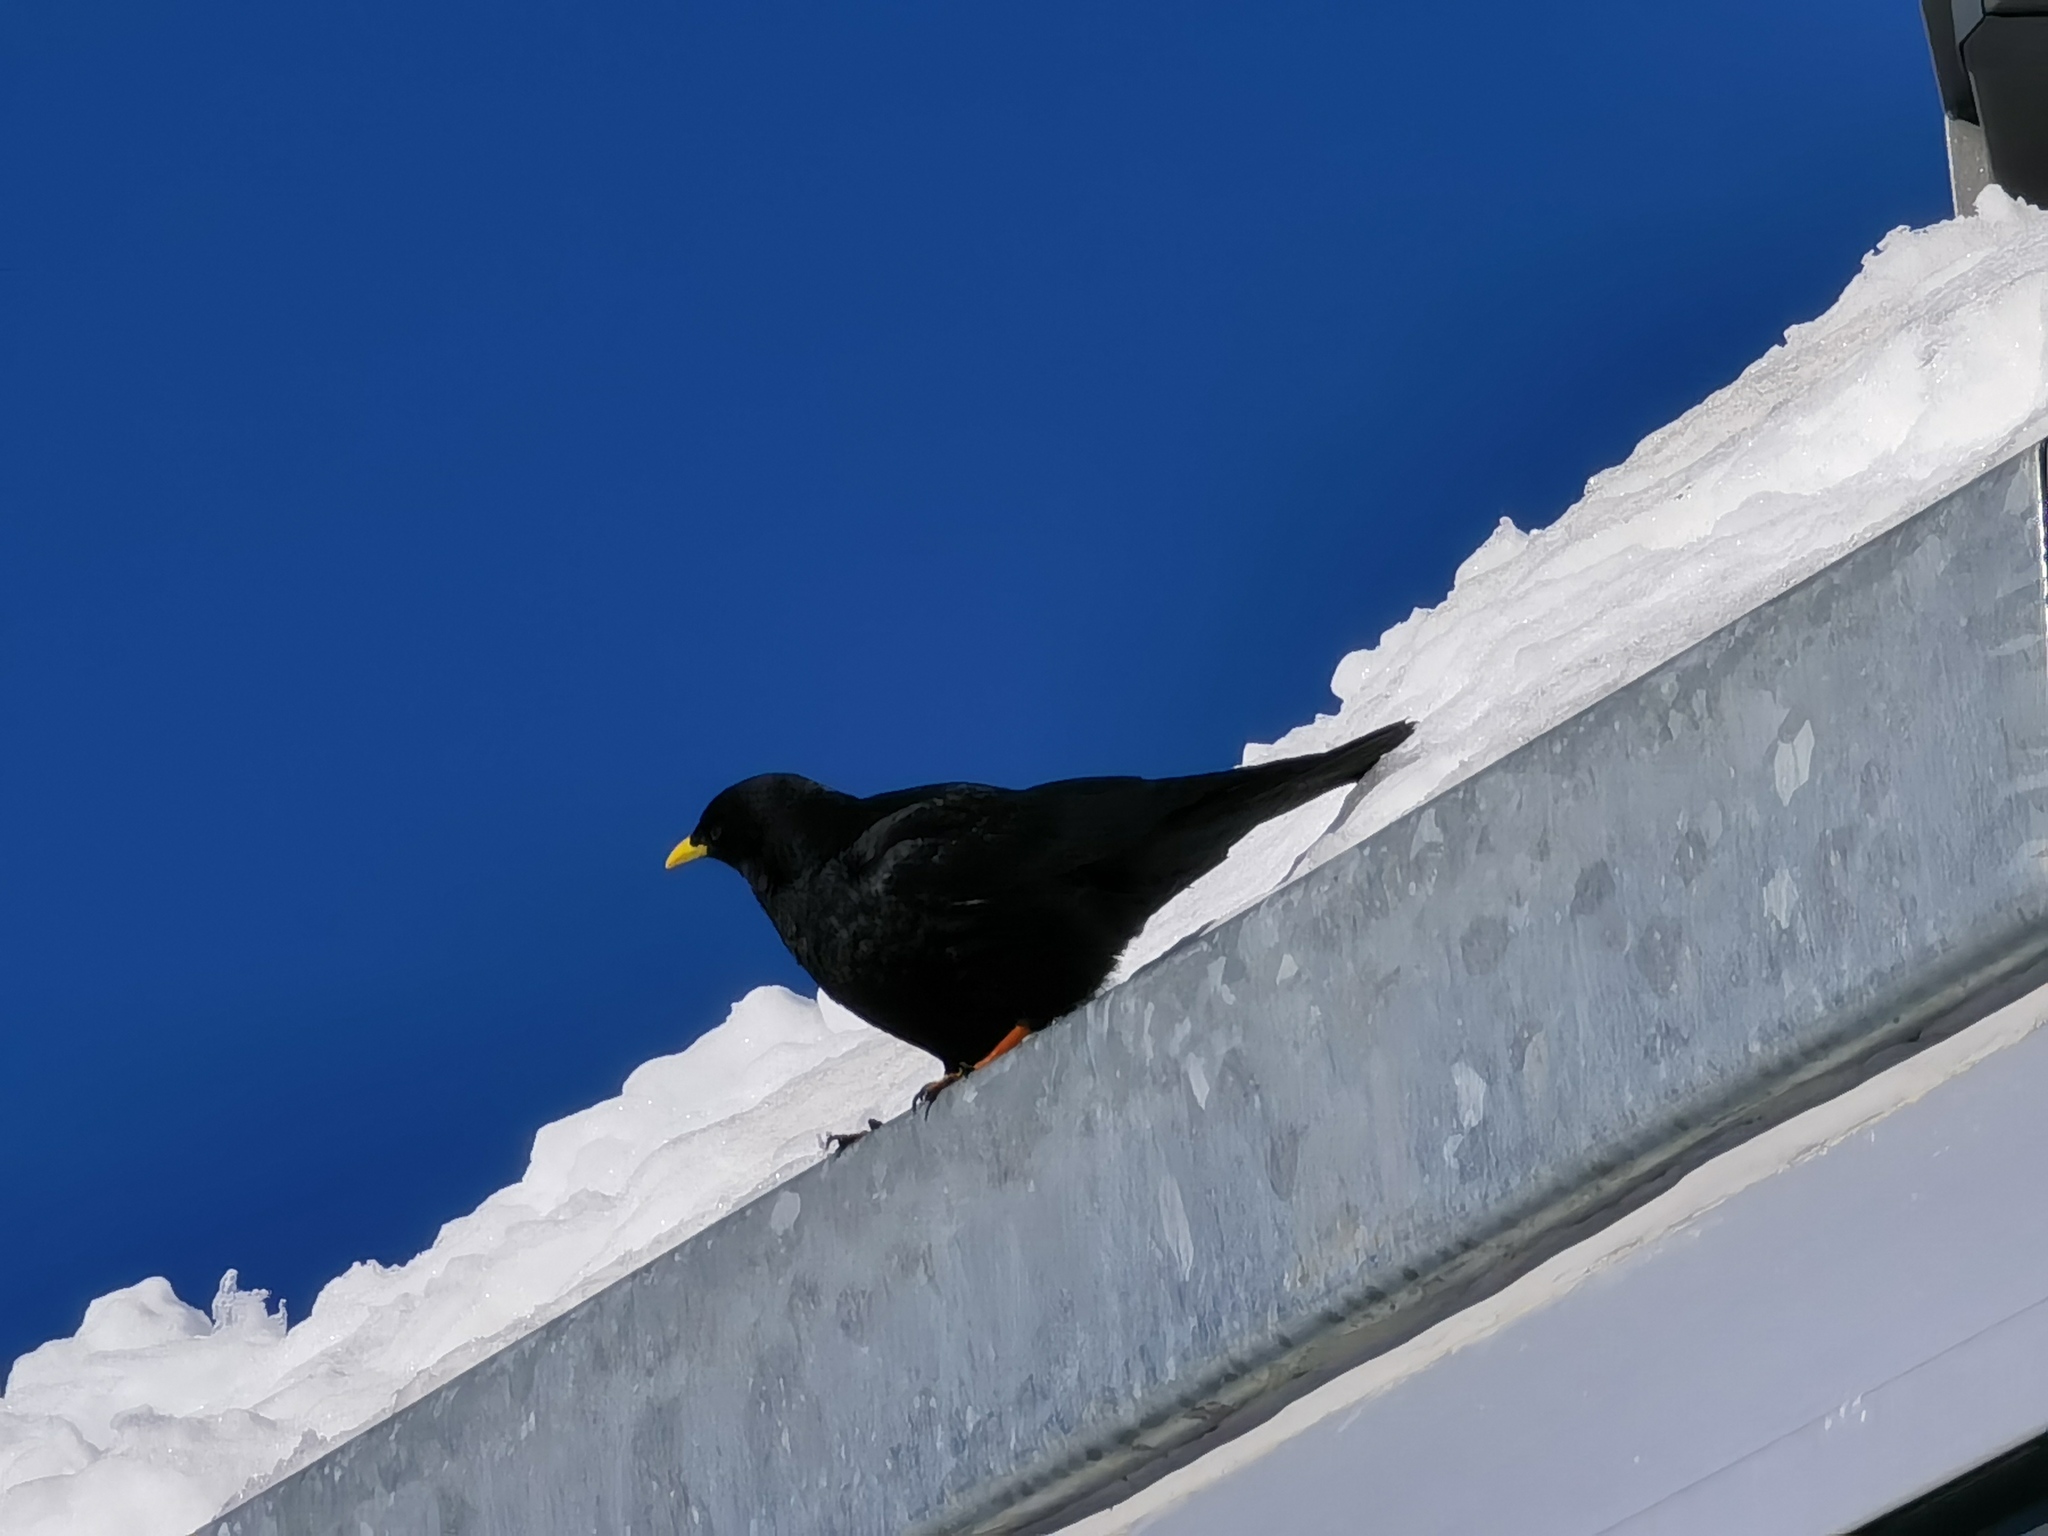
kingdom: Animalia
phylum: Chordata
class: Aves
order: Passeriformes
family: Corvidae
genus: Pyrrhocorax
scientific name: Pyrrhocorax graculus
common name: Alpine chough
